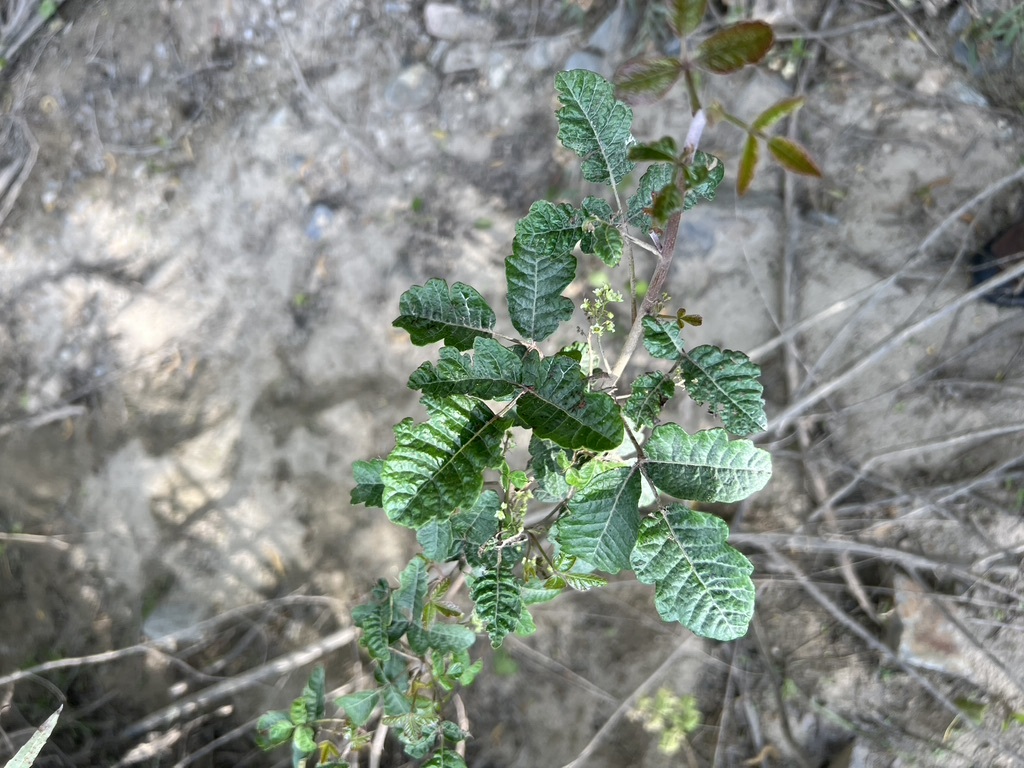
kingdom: Plantae
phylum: Tracheophyta
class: Magnoliopsida
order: Sapindales
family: Anacardiaceae
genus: Toxicodendron
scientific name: Toxicodendron diversilobum
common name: Pacific poison-oak
